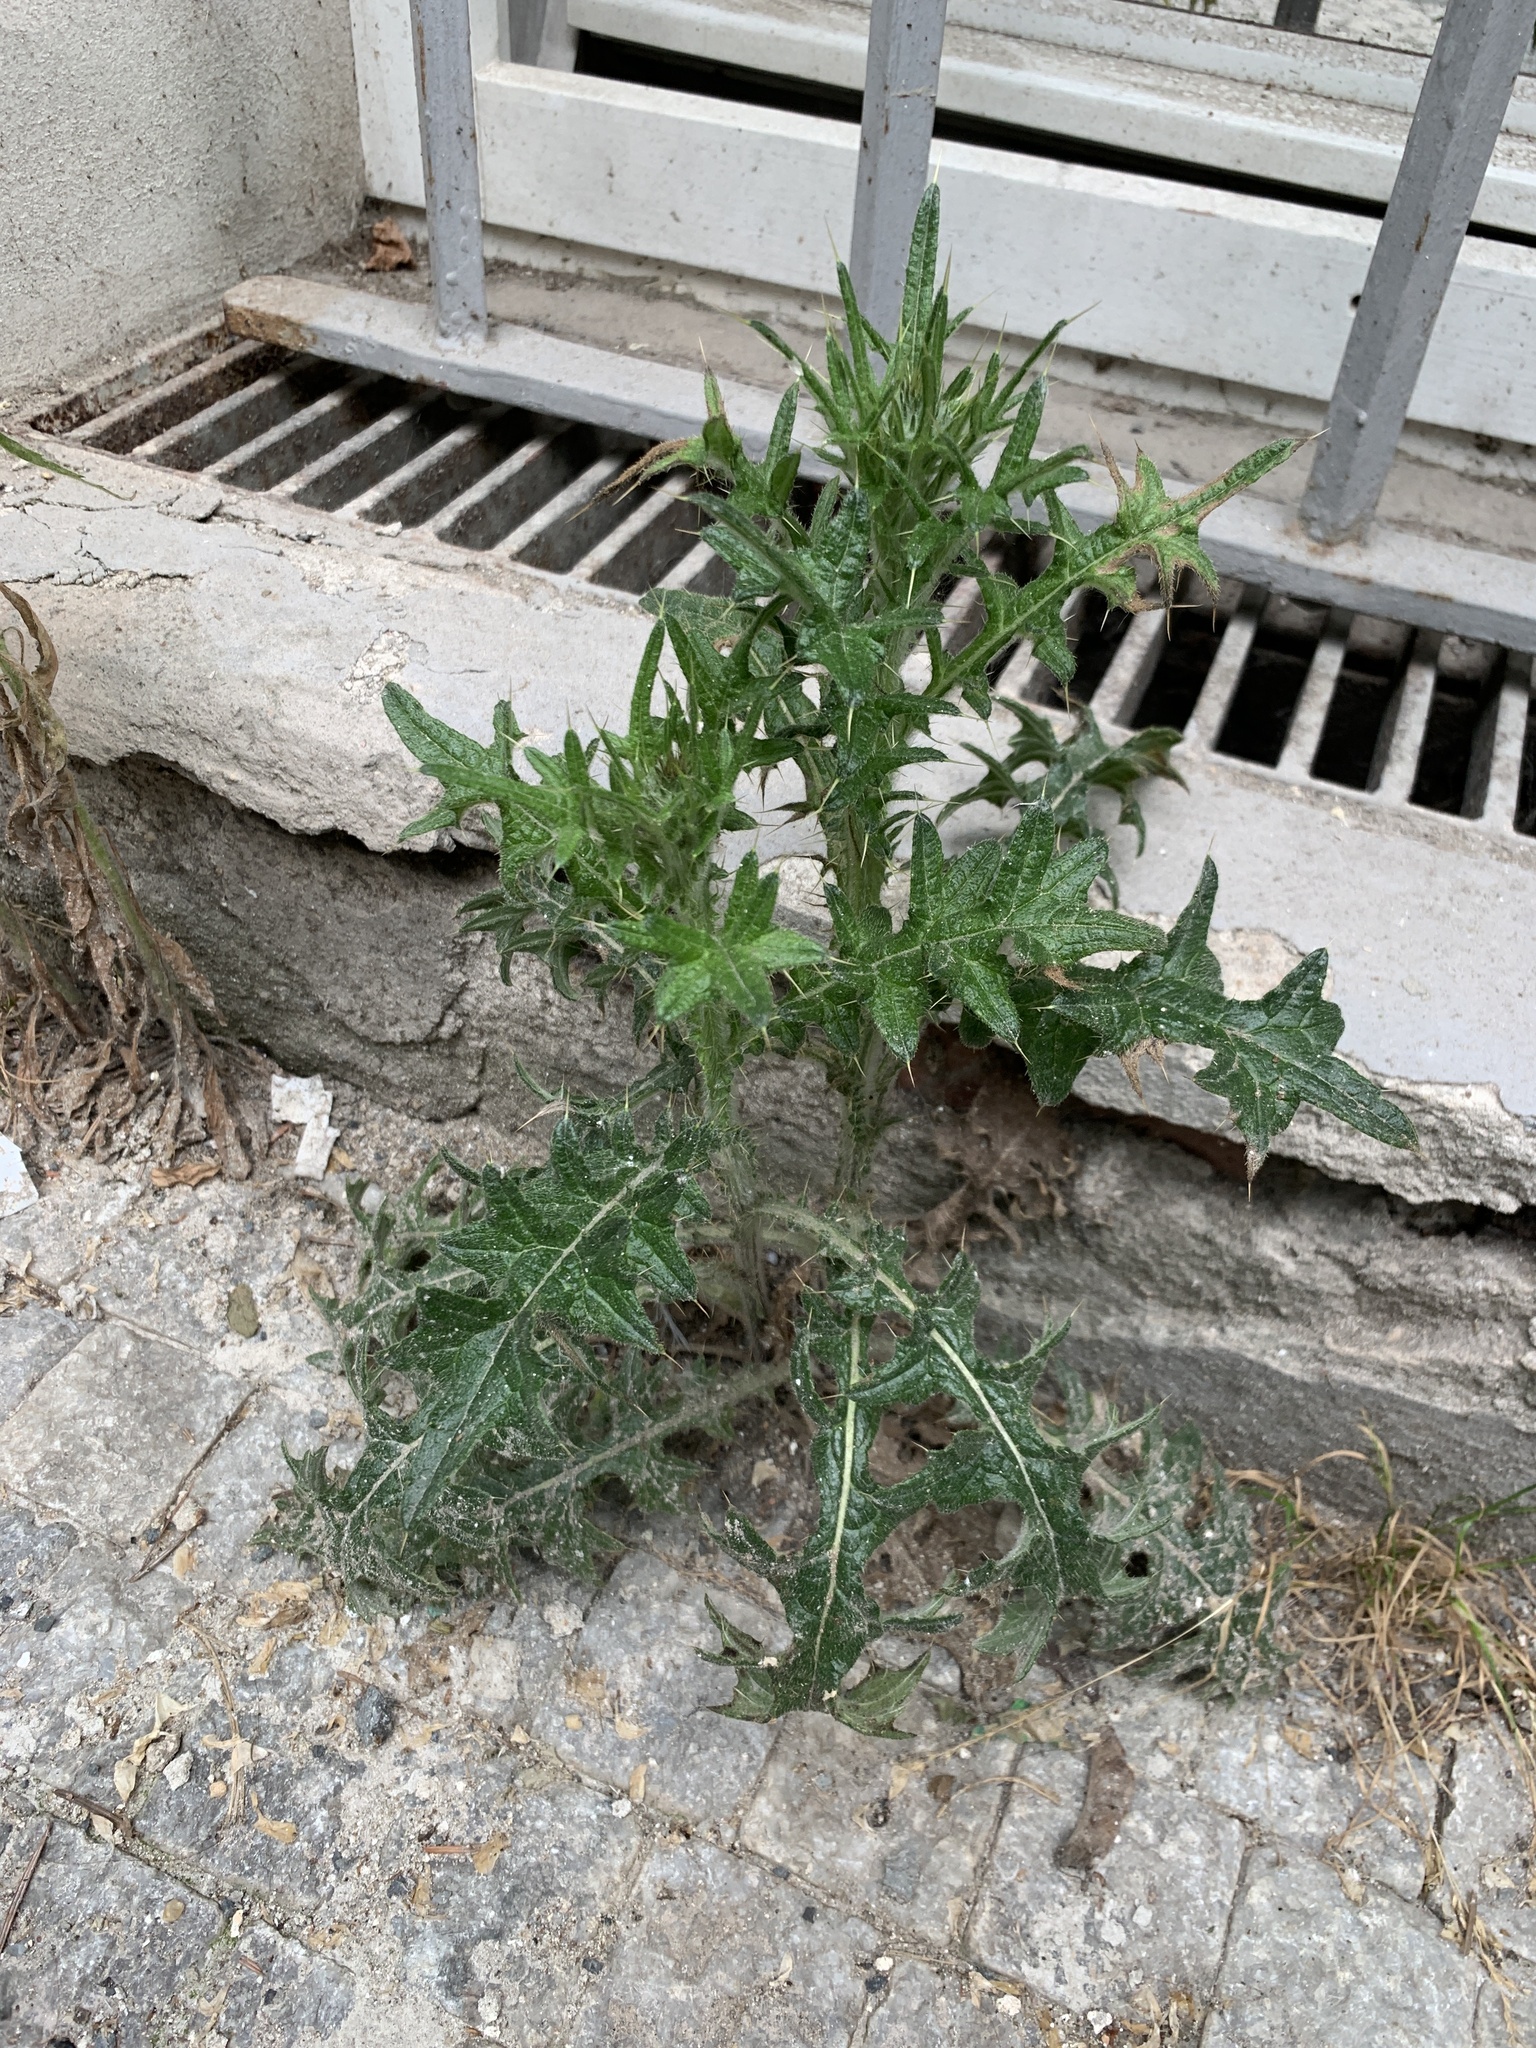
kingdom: Plantae
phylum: Tracheophyta
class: Magnoliopsida
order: Asterales
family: Asteraceae
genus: Cirsium
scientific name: Cirsium vulgare
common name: Bull thistle
